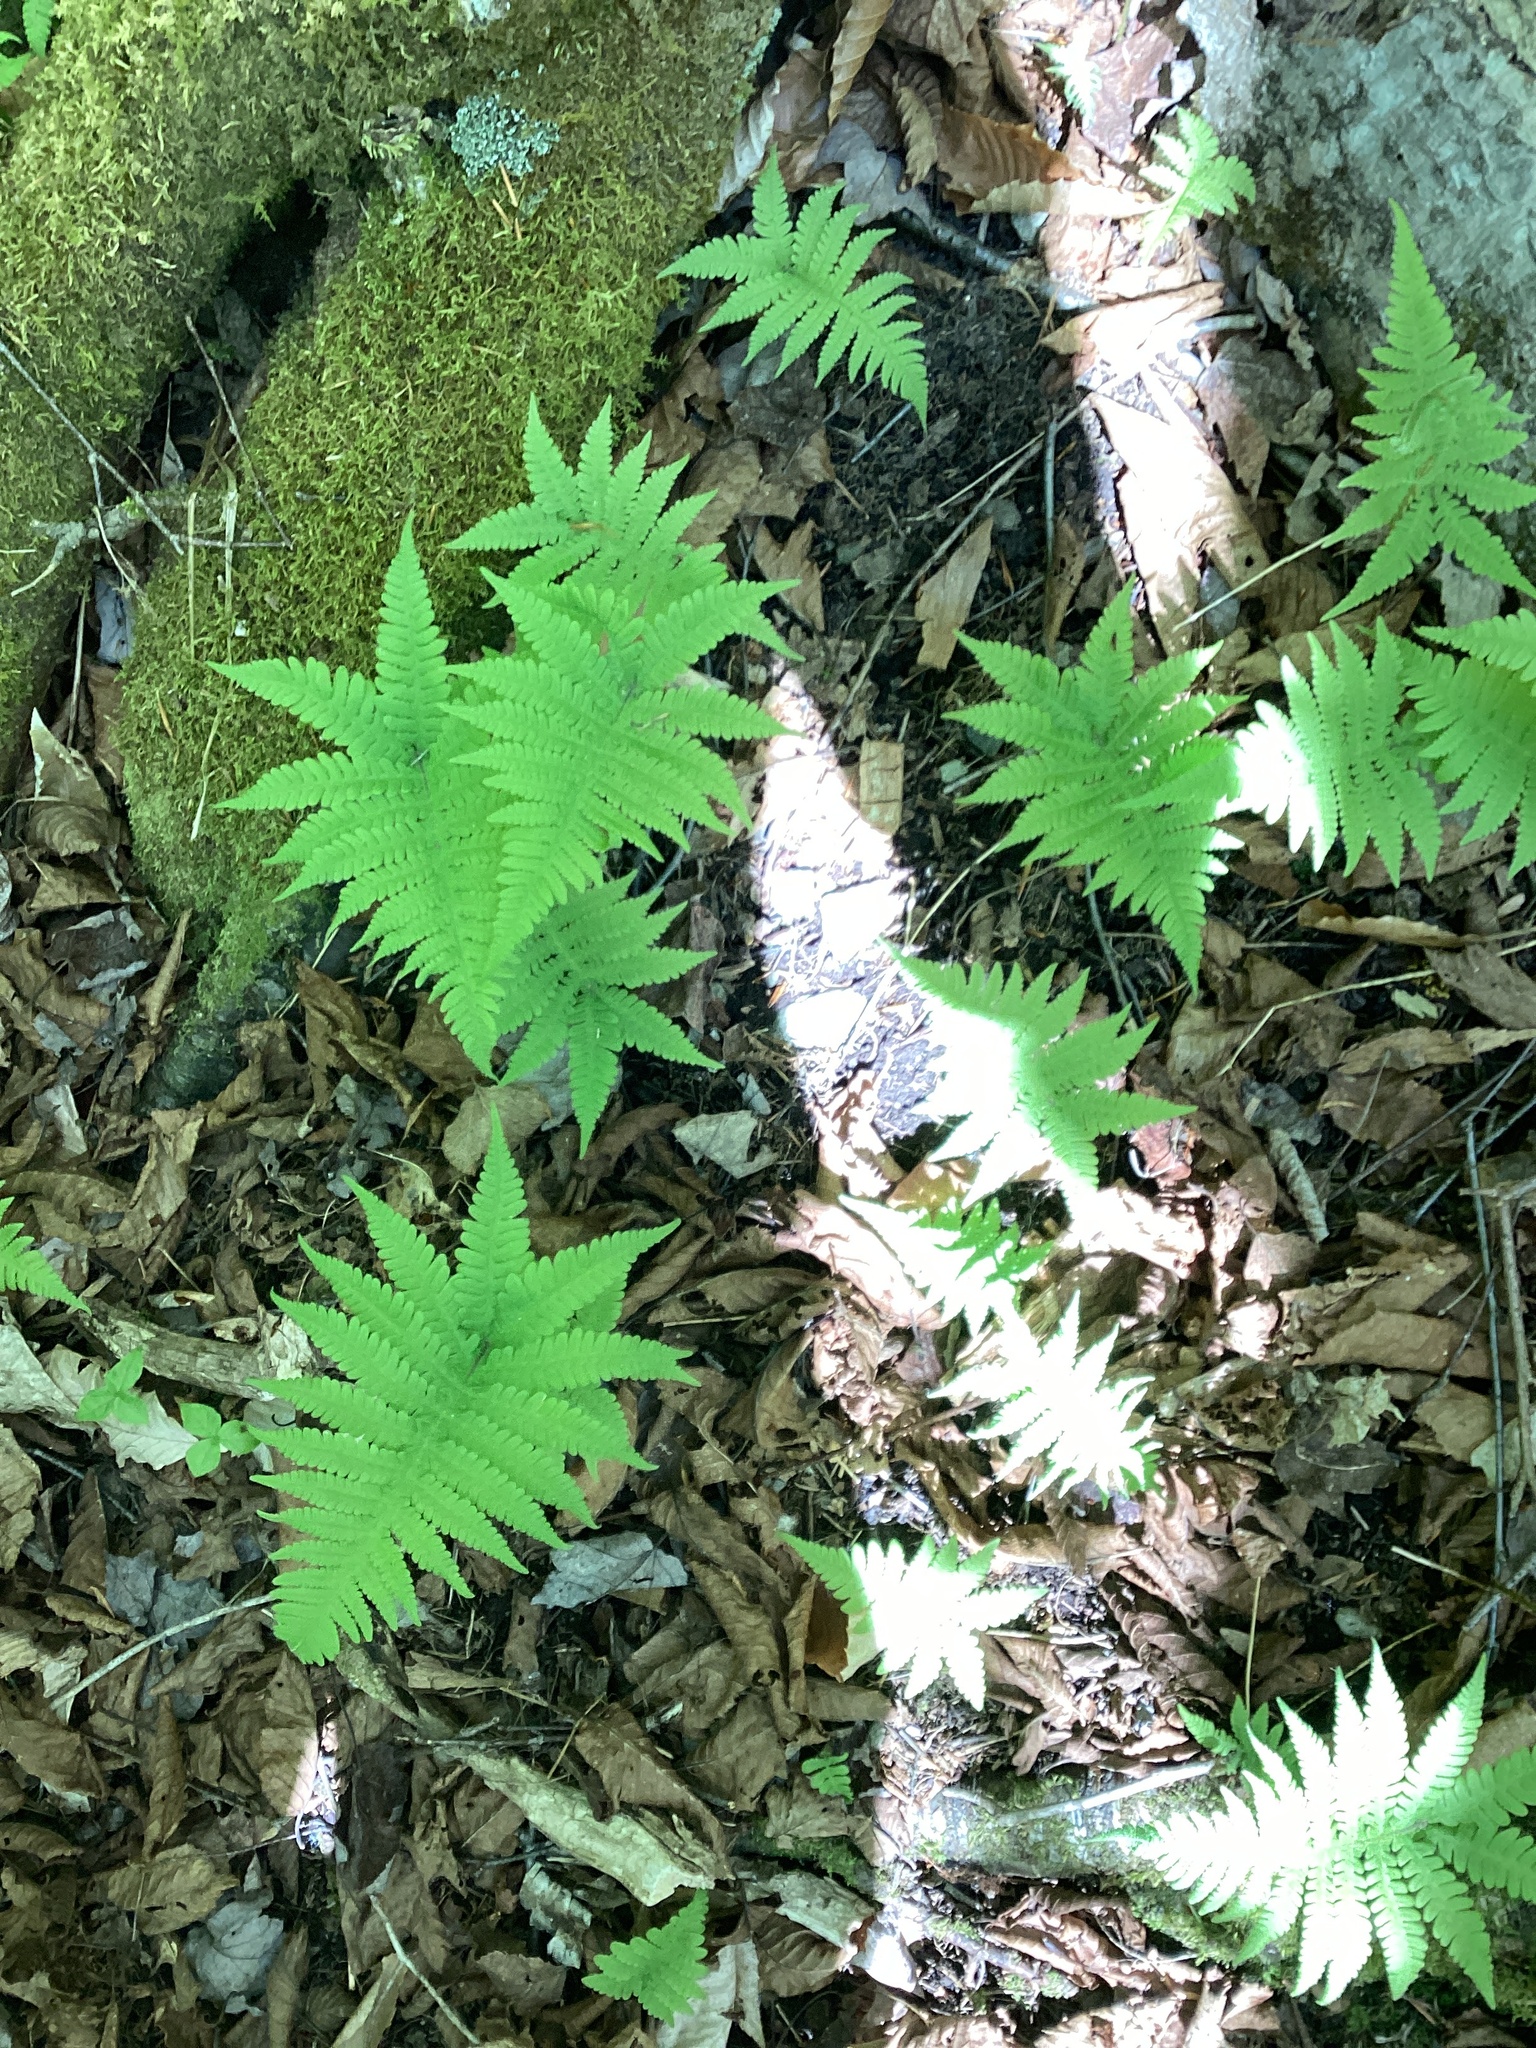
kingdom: Plantae
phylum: Tracheophyta
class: Polypodiopsida
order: Polypodiales
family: Thelypteridaceae
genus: Phegopteris
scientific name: Phegopteris connectilis
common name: Beech fern
